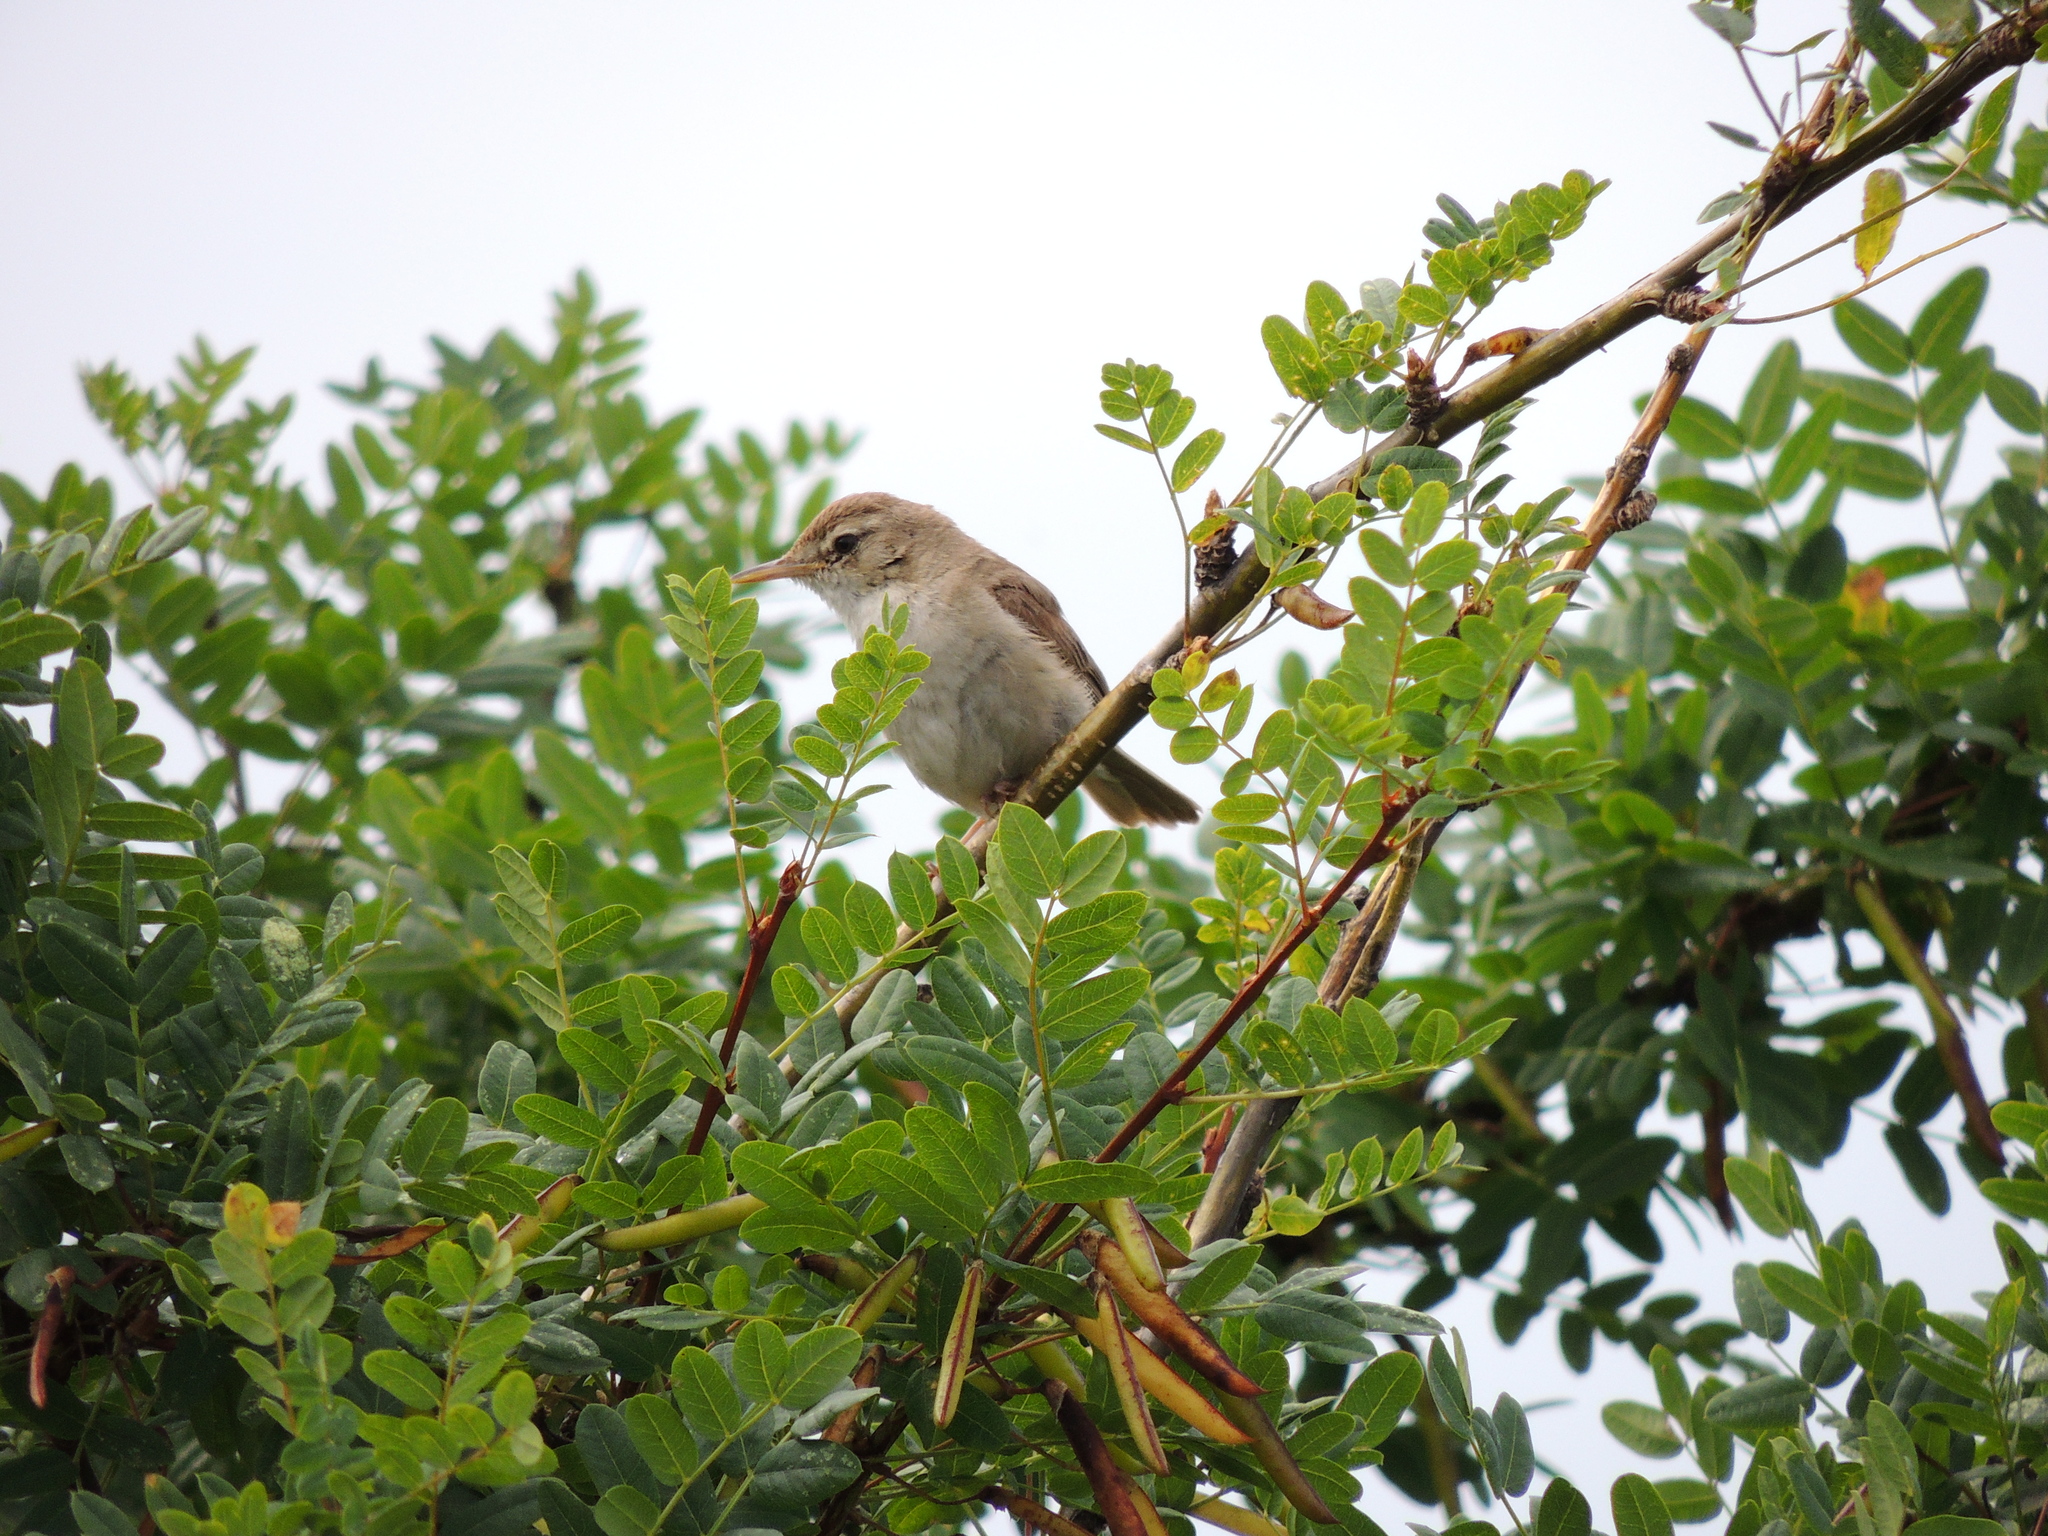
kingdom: Animalia
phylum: Chordata
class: Aves
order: Passeriformes
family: Acrocephalidae
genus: Iduna
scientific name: Iduna caligata
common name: Booted warbler
